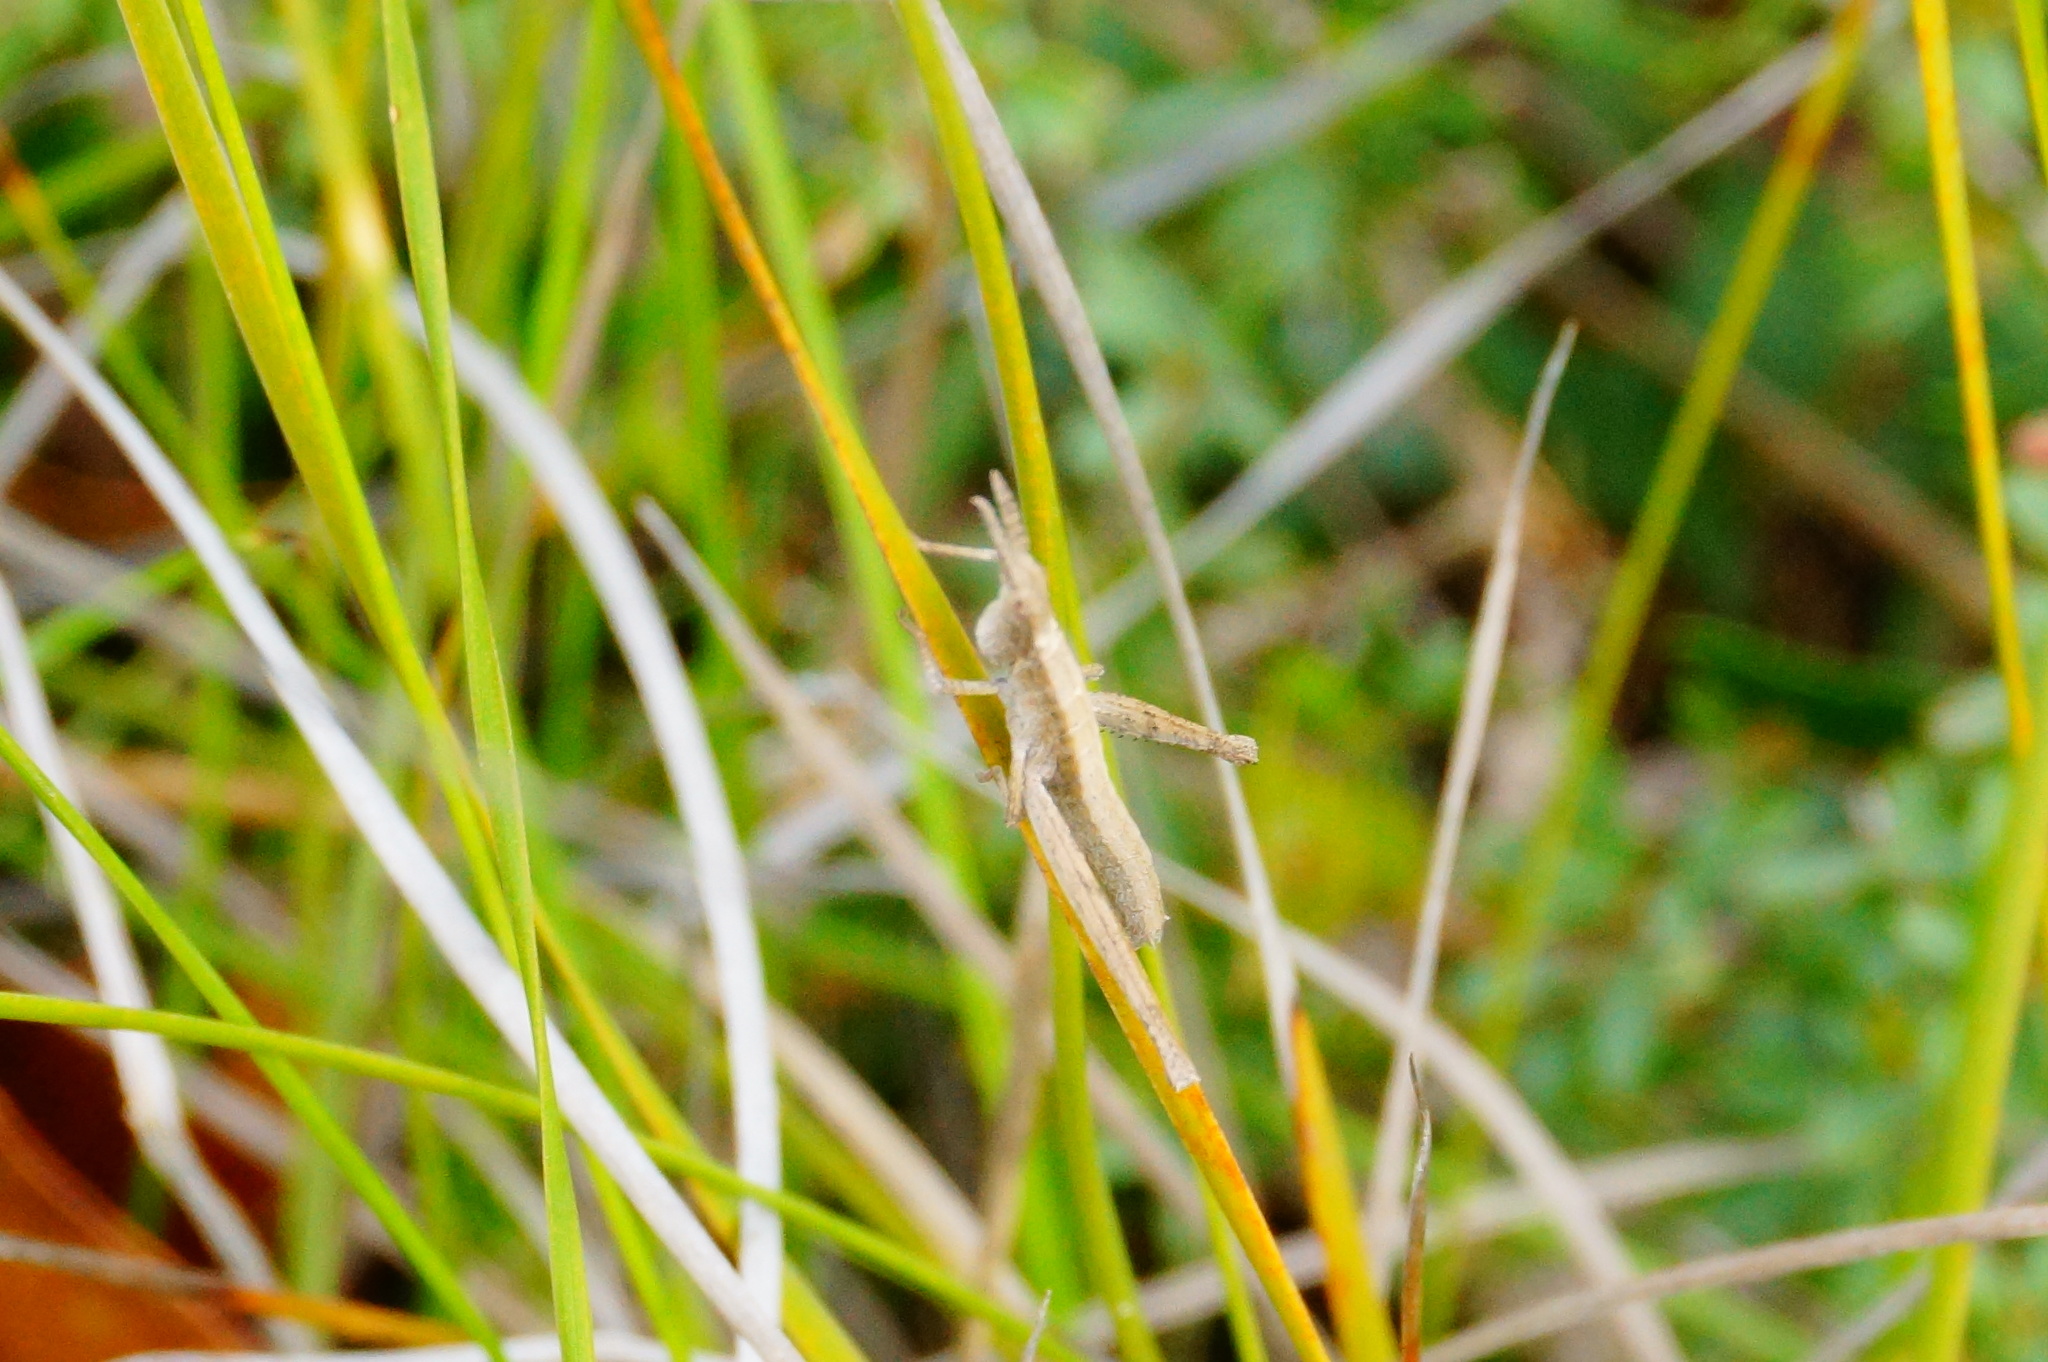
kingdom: Animalia
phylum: Arthropoda
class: Insecta
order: Orthoptera
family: Morabidae
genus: Vandiemenella
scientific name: Vandiemenella viatica
